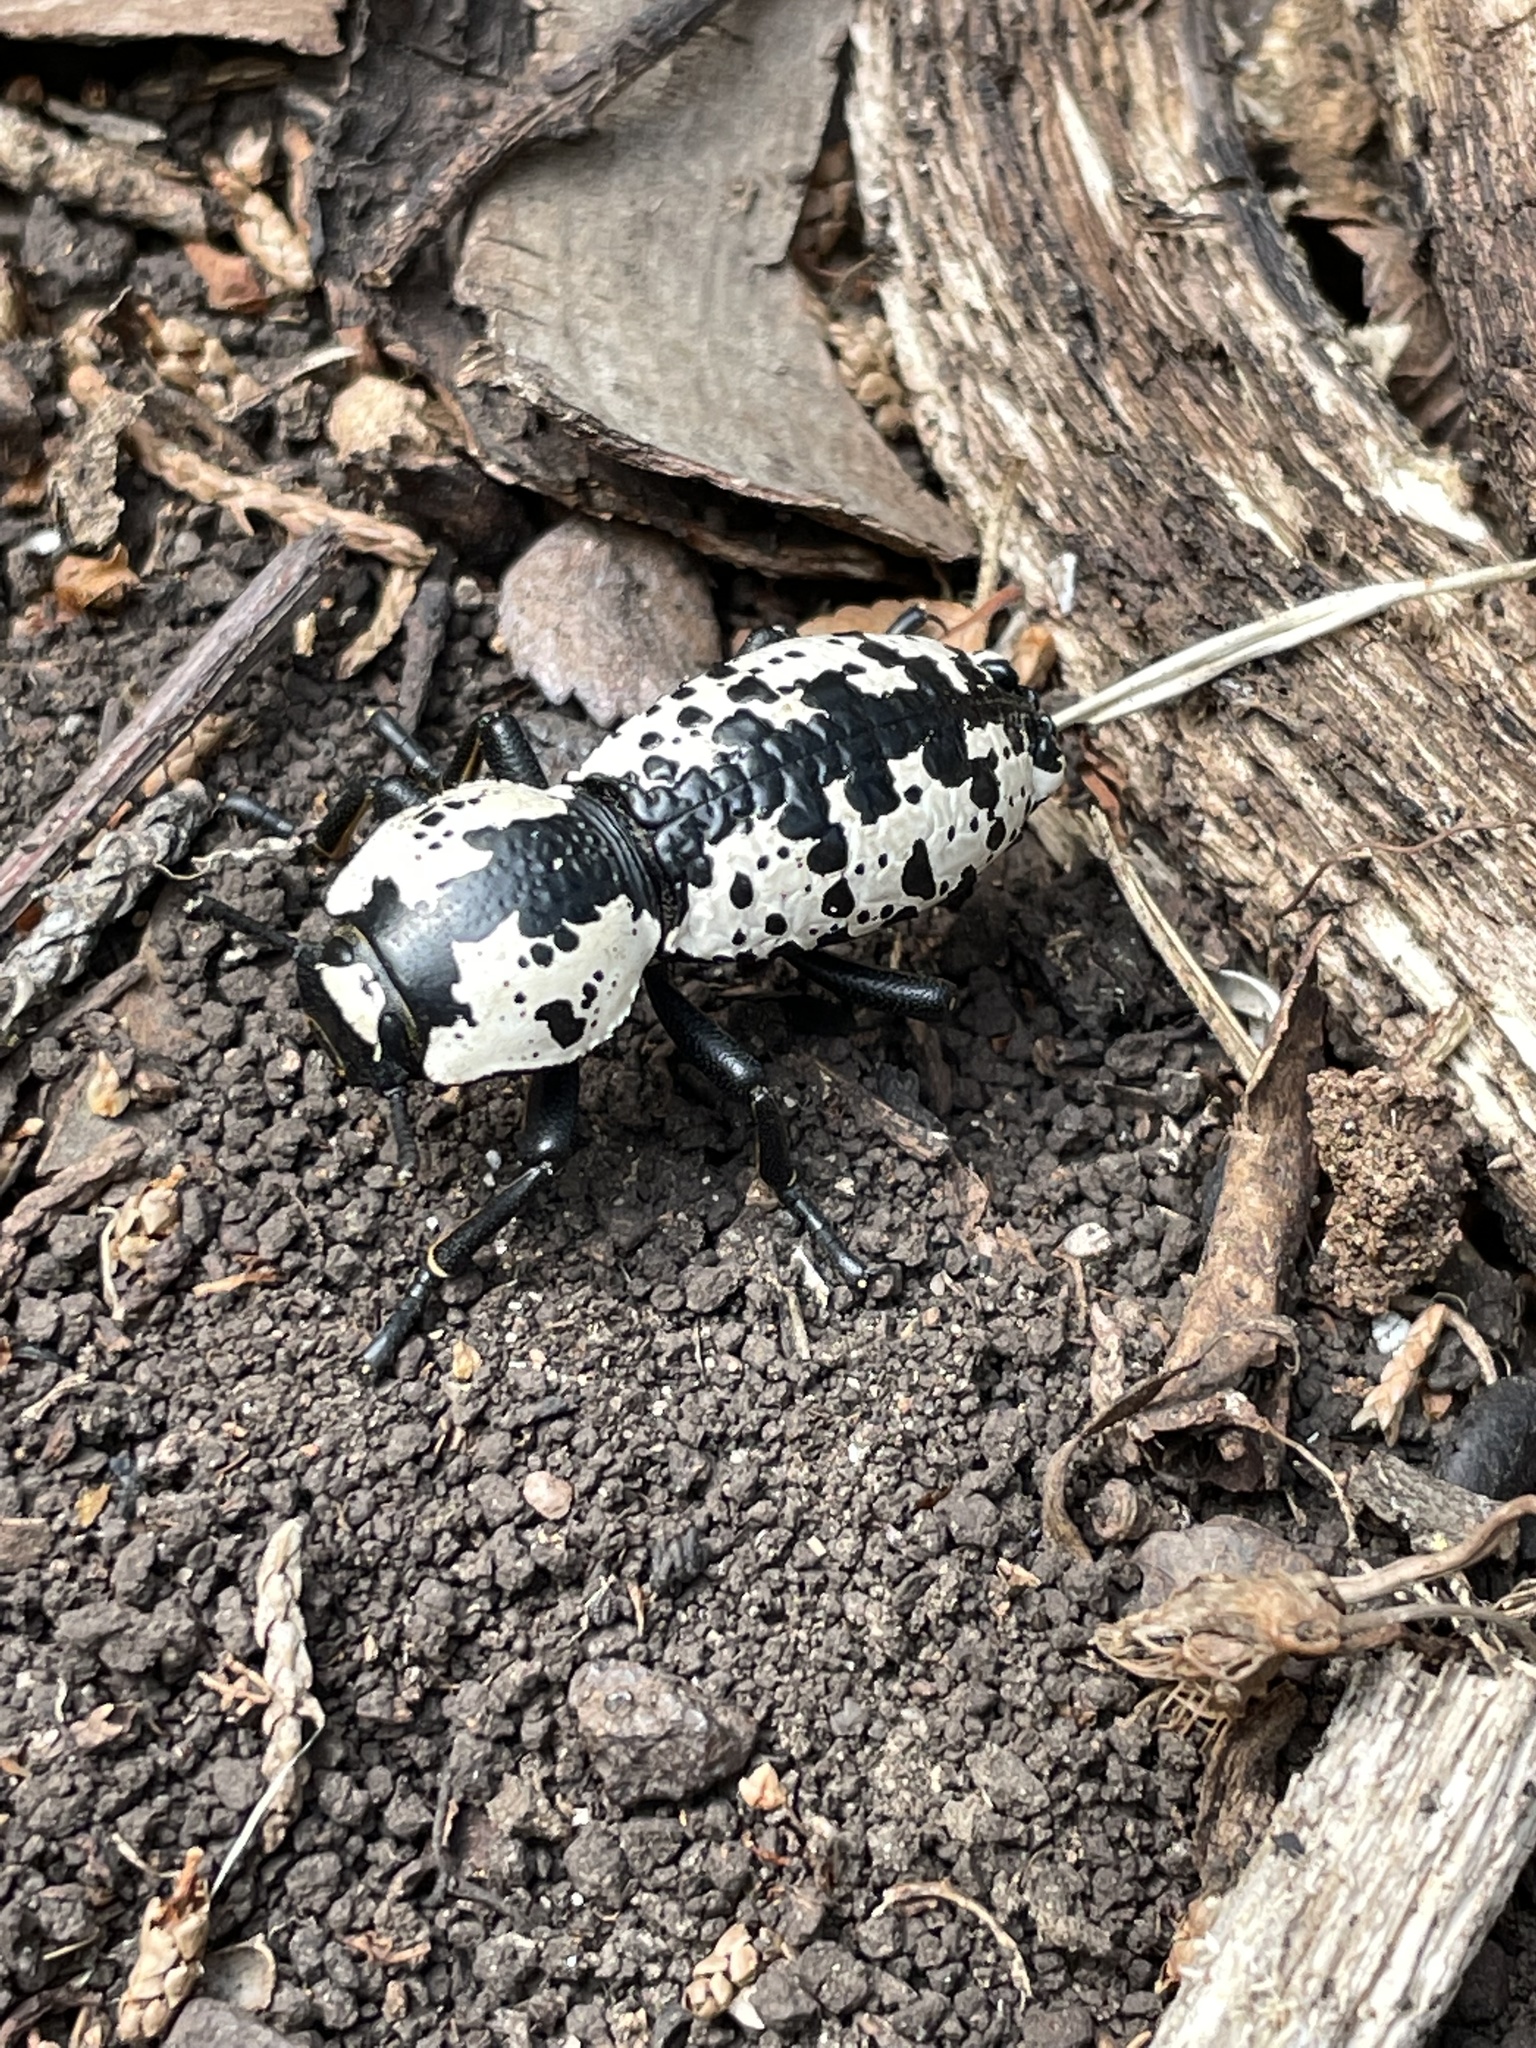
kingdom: Animalia
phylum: Arthropoda
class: Insecta
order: Coleoptera
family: Zopheridae
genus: Zopherus
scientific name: Zopherus nodulosus
